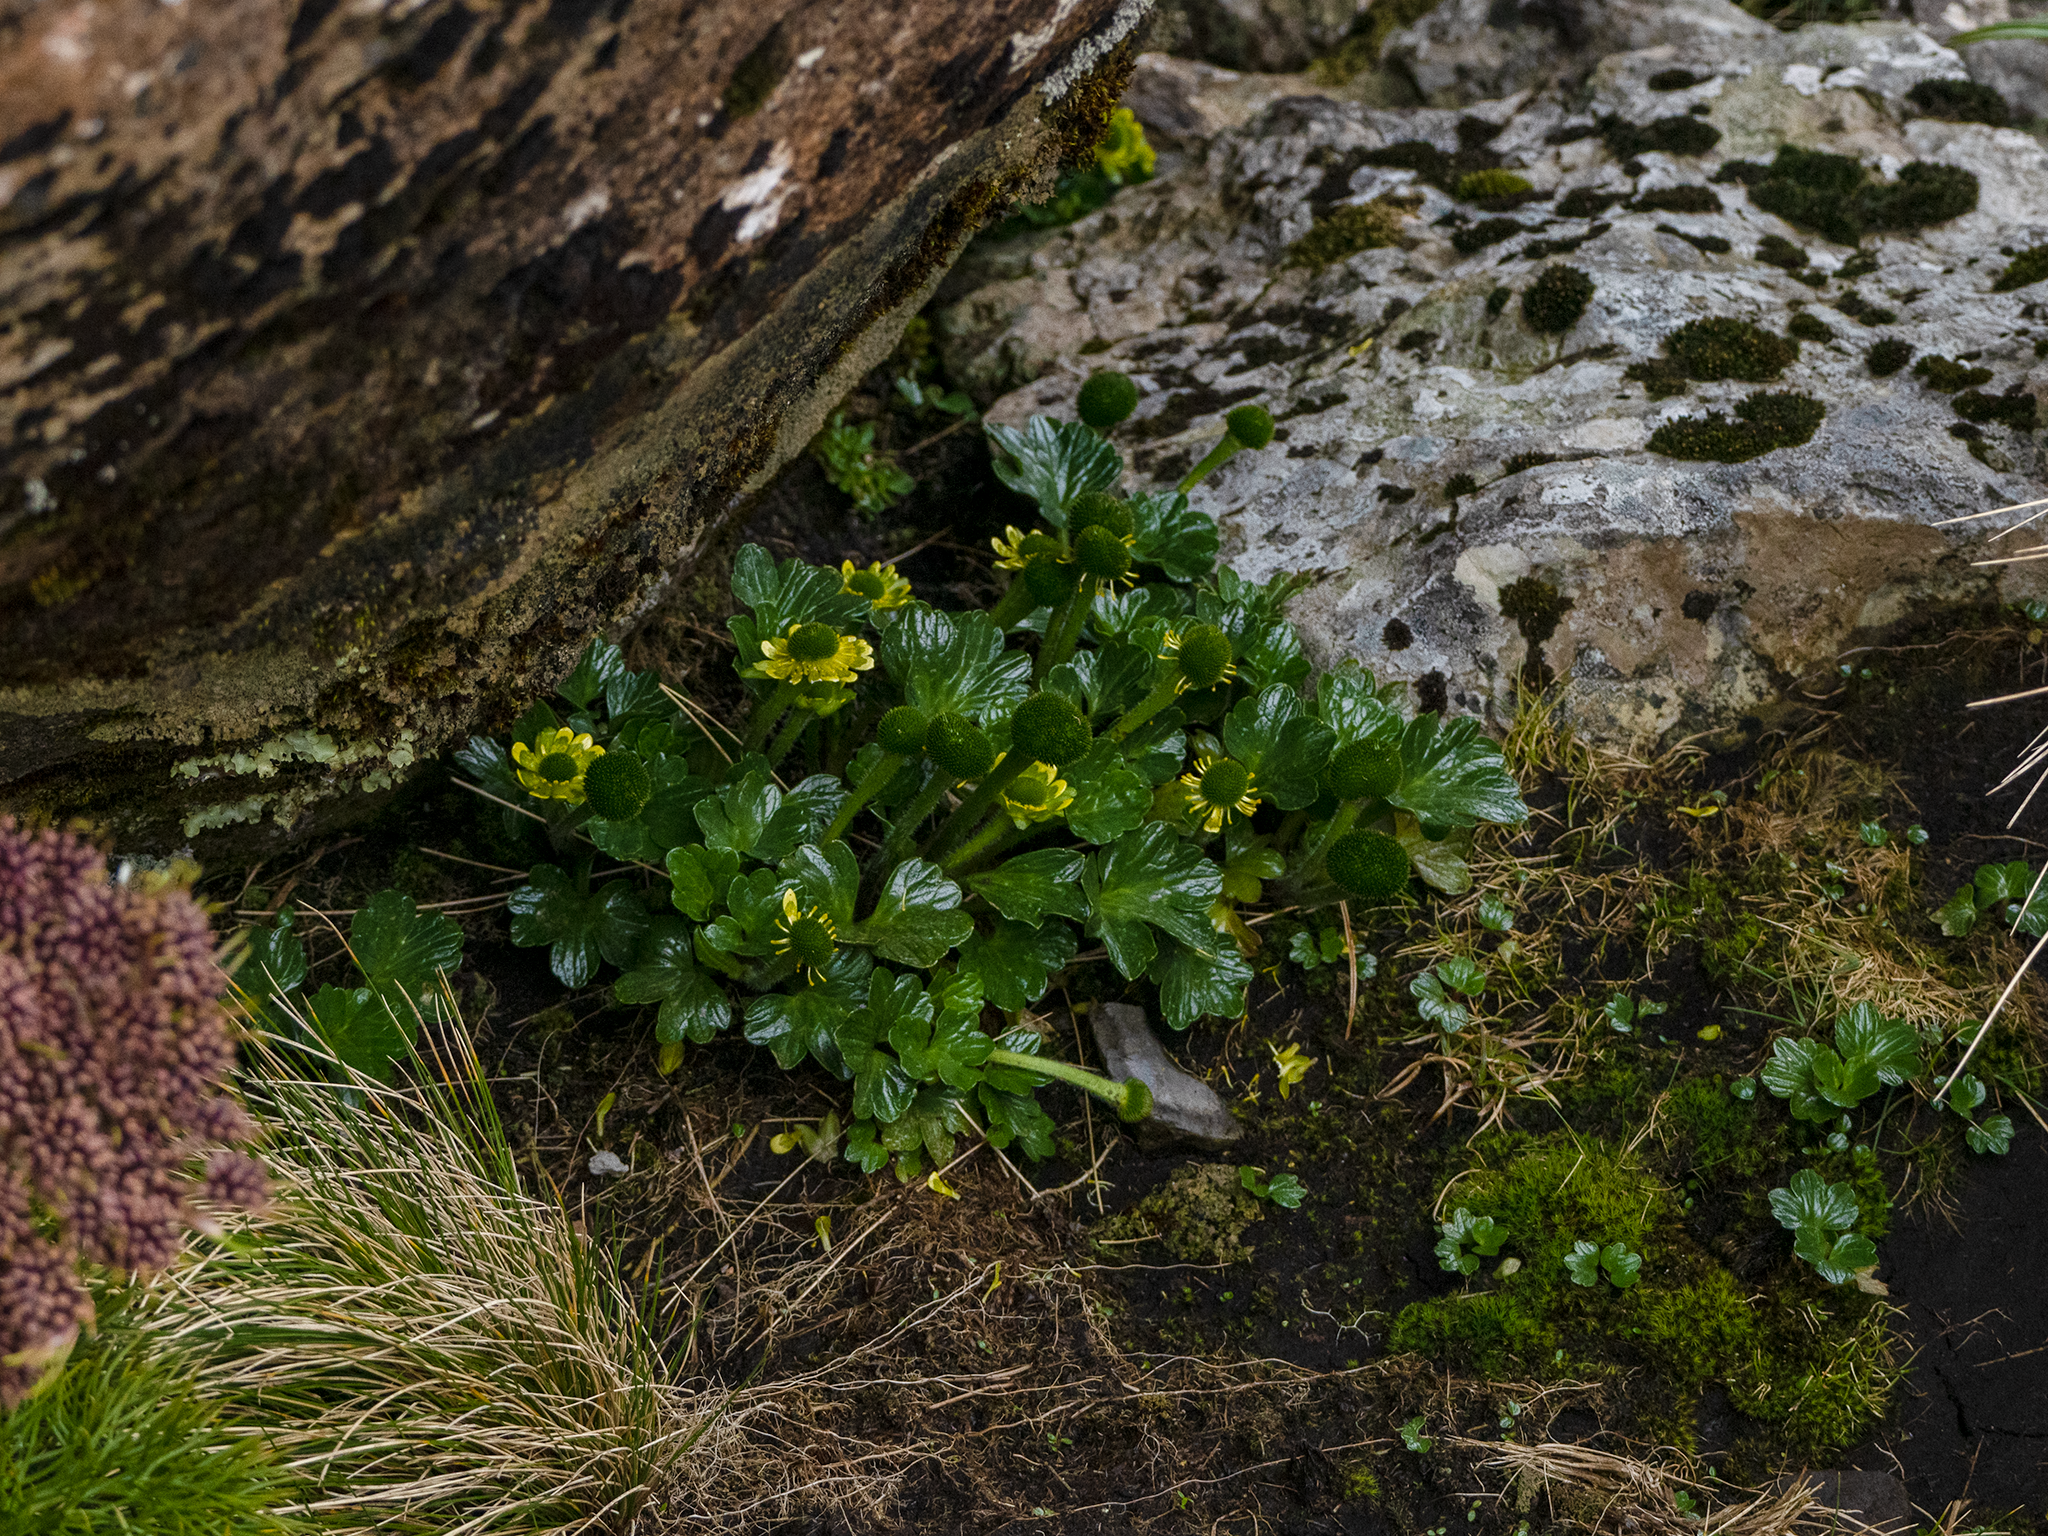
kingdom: Plantae
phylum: Tracheophyta
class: Magnoliopsida
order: Ranunculales
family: Ranunculaceae
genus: Ranunculus
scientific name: Ranunculus pinguis
